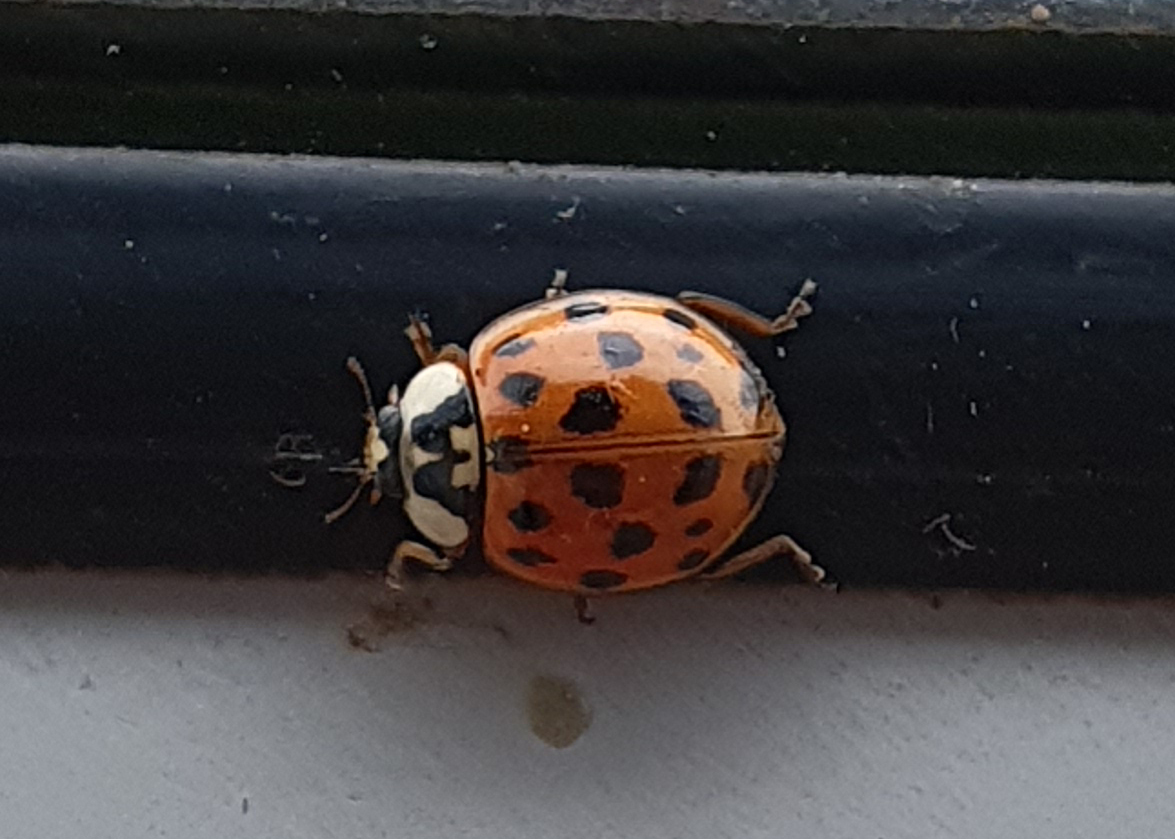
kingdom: Animalia
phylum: Arthropoda
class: Insecta
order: Coleoptera
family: Coccinellidae
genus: Harmonia
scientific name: Harmonia axyridis
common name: Harlequin ladybird
